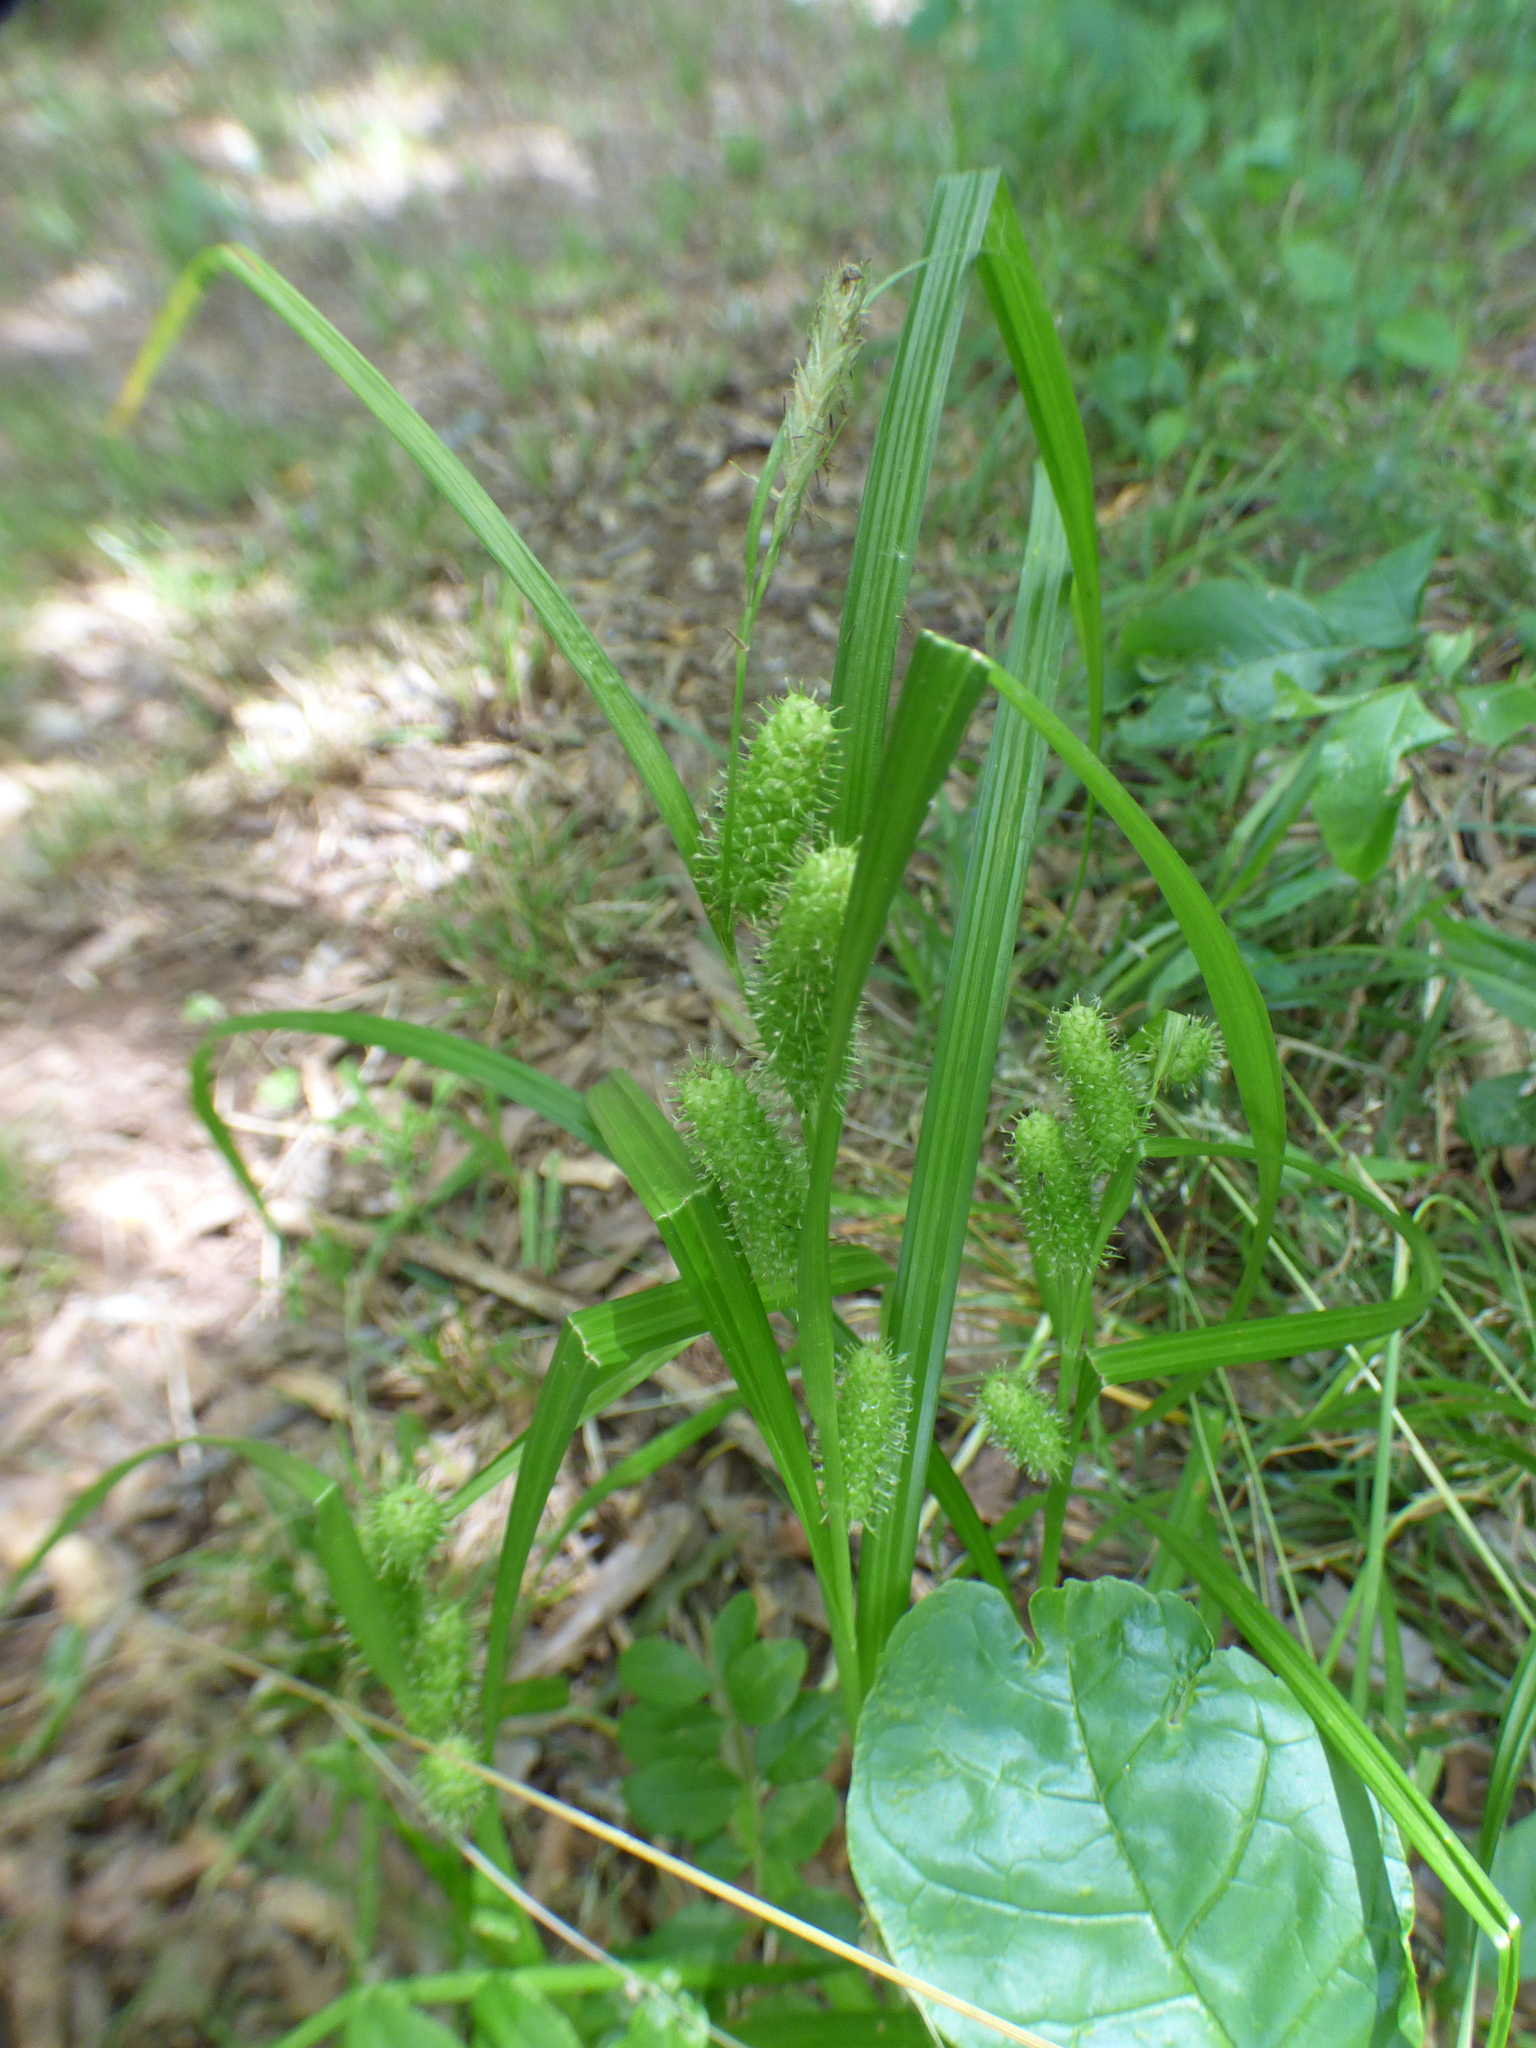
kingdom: Plantae
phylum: Tracheophyta
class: Liliopsida
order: Poales
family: Cyperaceae
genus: Carex
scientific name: Carex aureolensis
